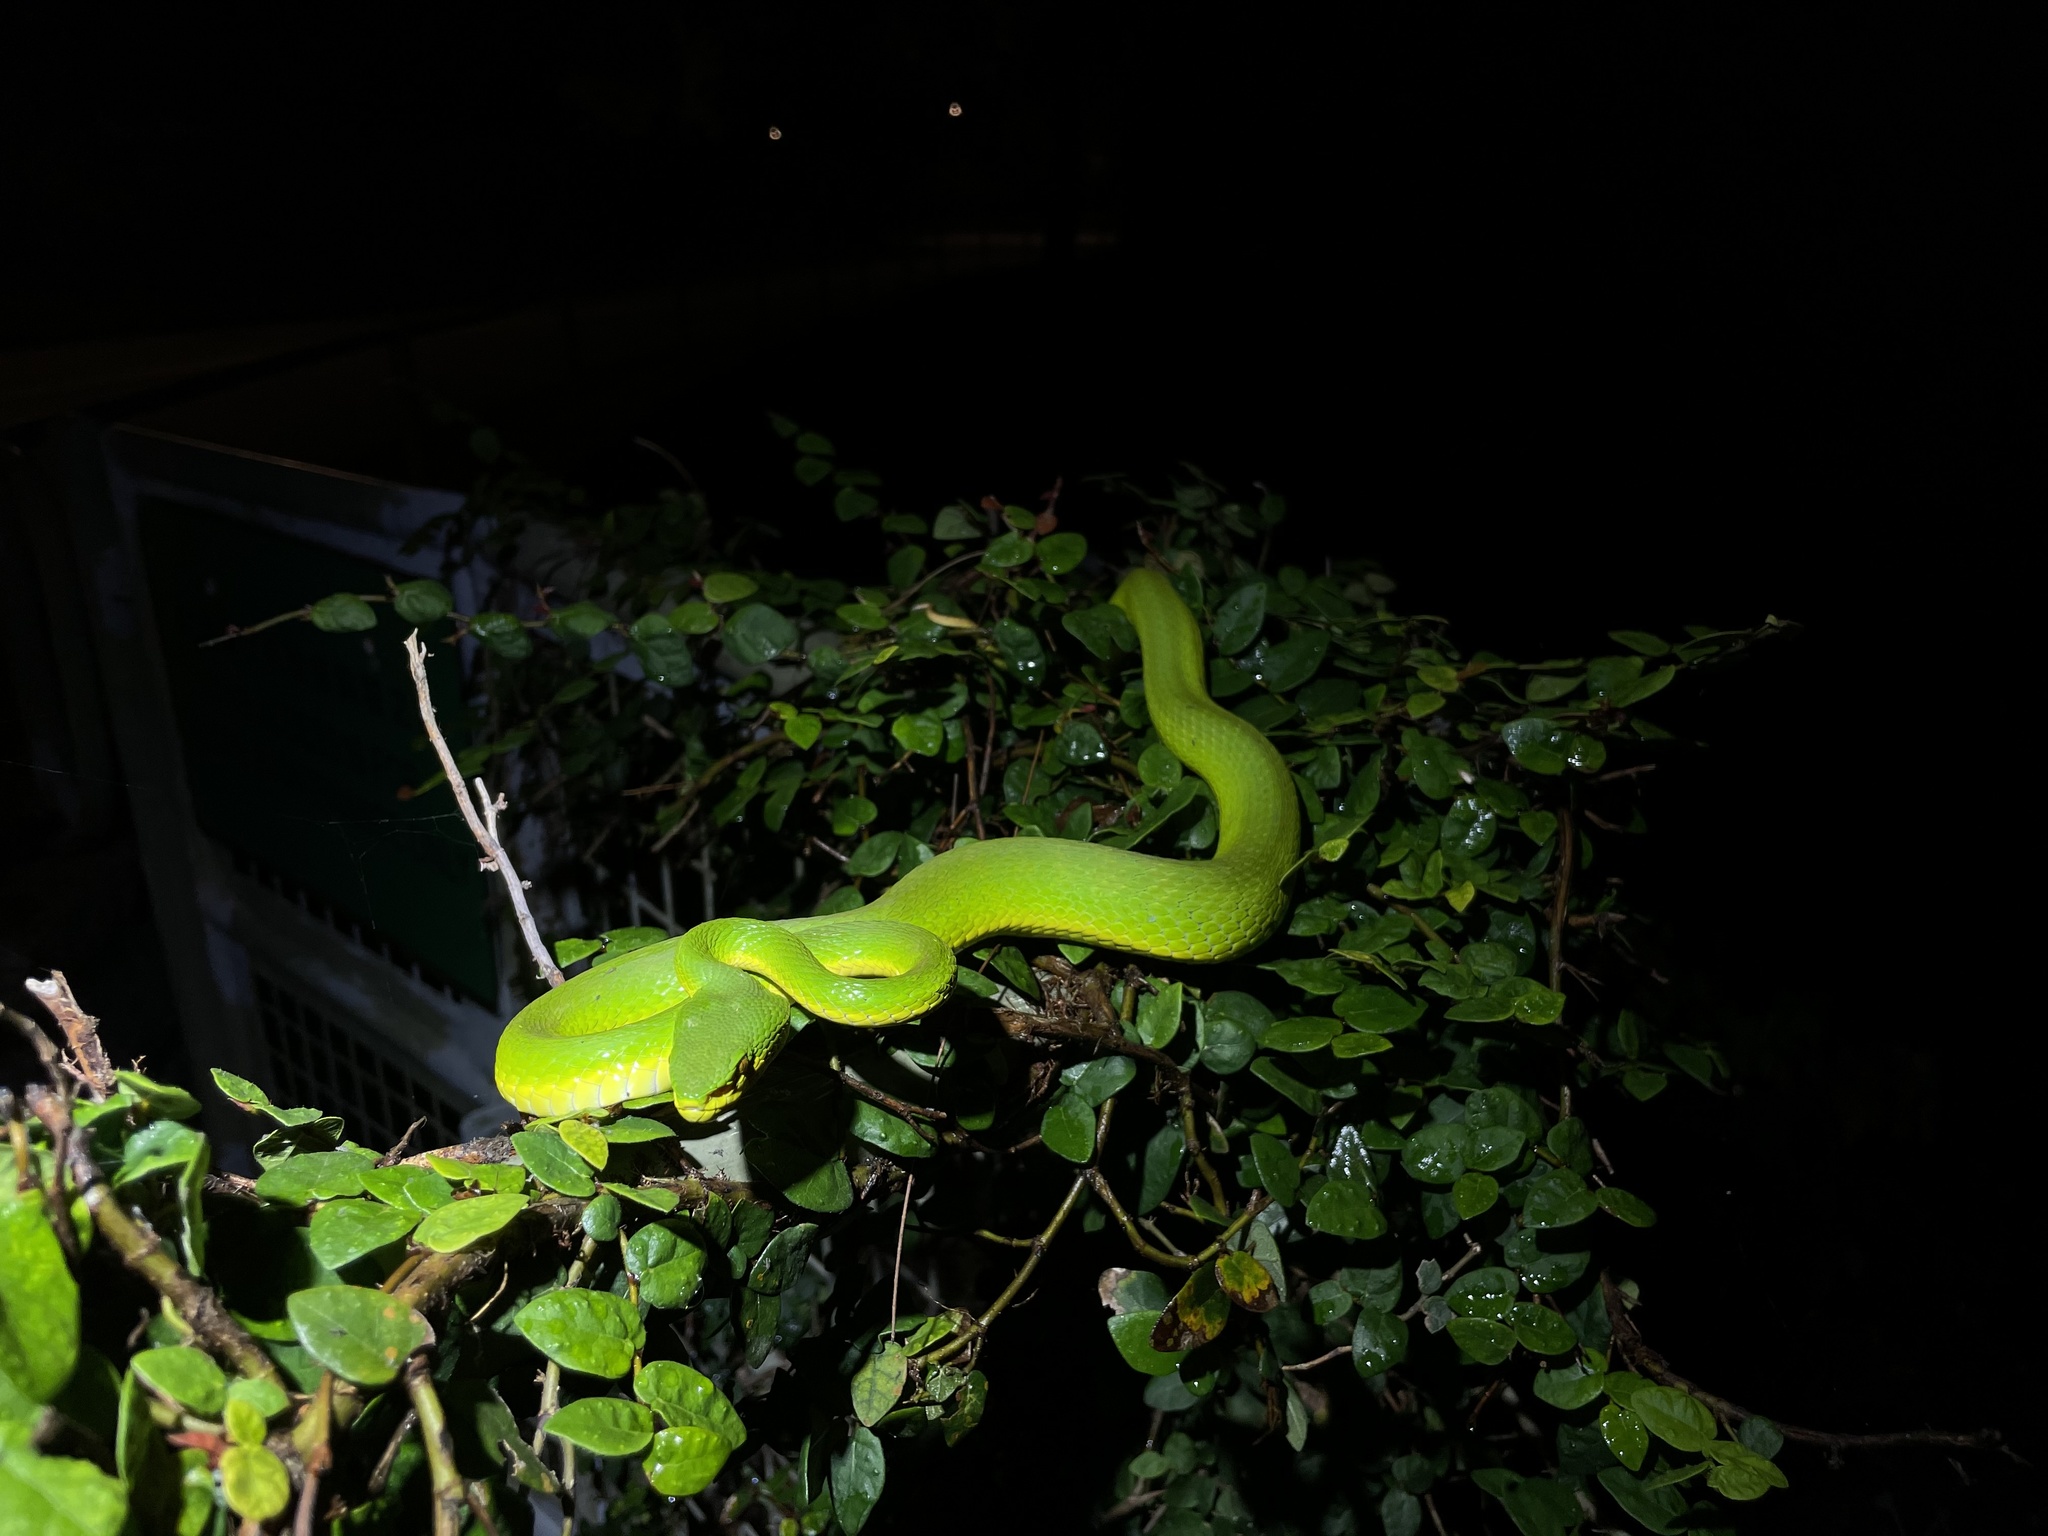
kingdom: Animalia
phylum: Chordata
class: Squamata
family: Viperidae
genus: Trimeresurus
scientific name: Trimeresurus albolabris
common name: White-lipped pitviper
